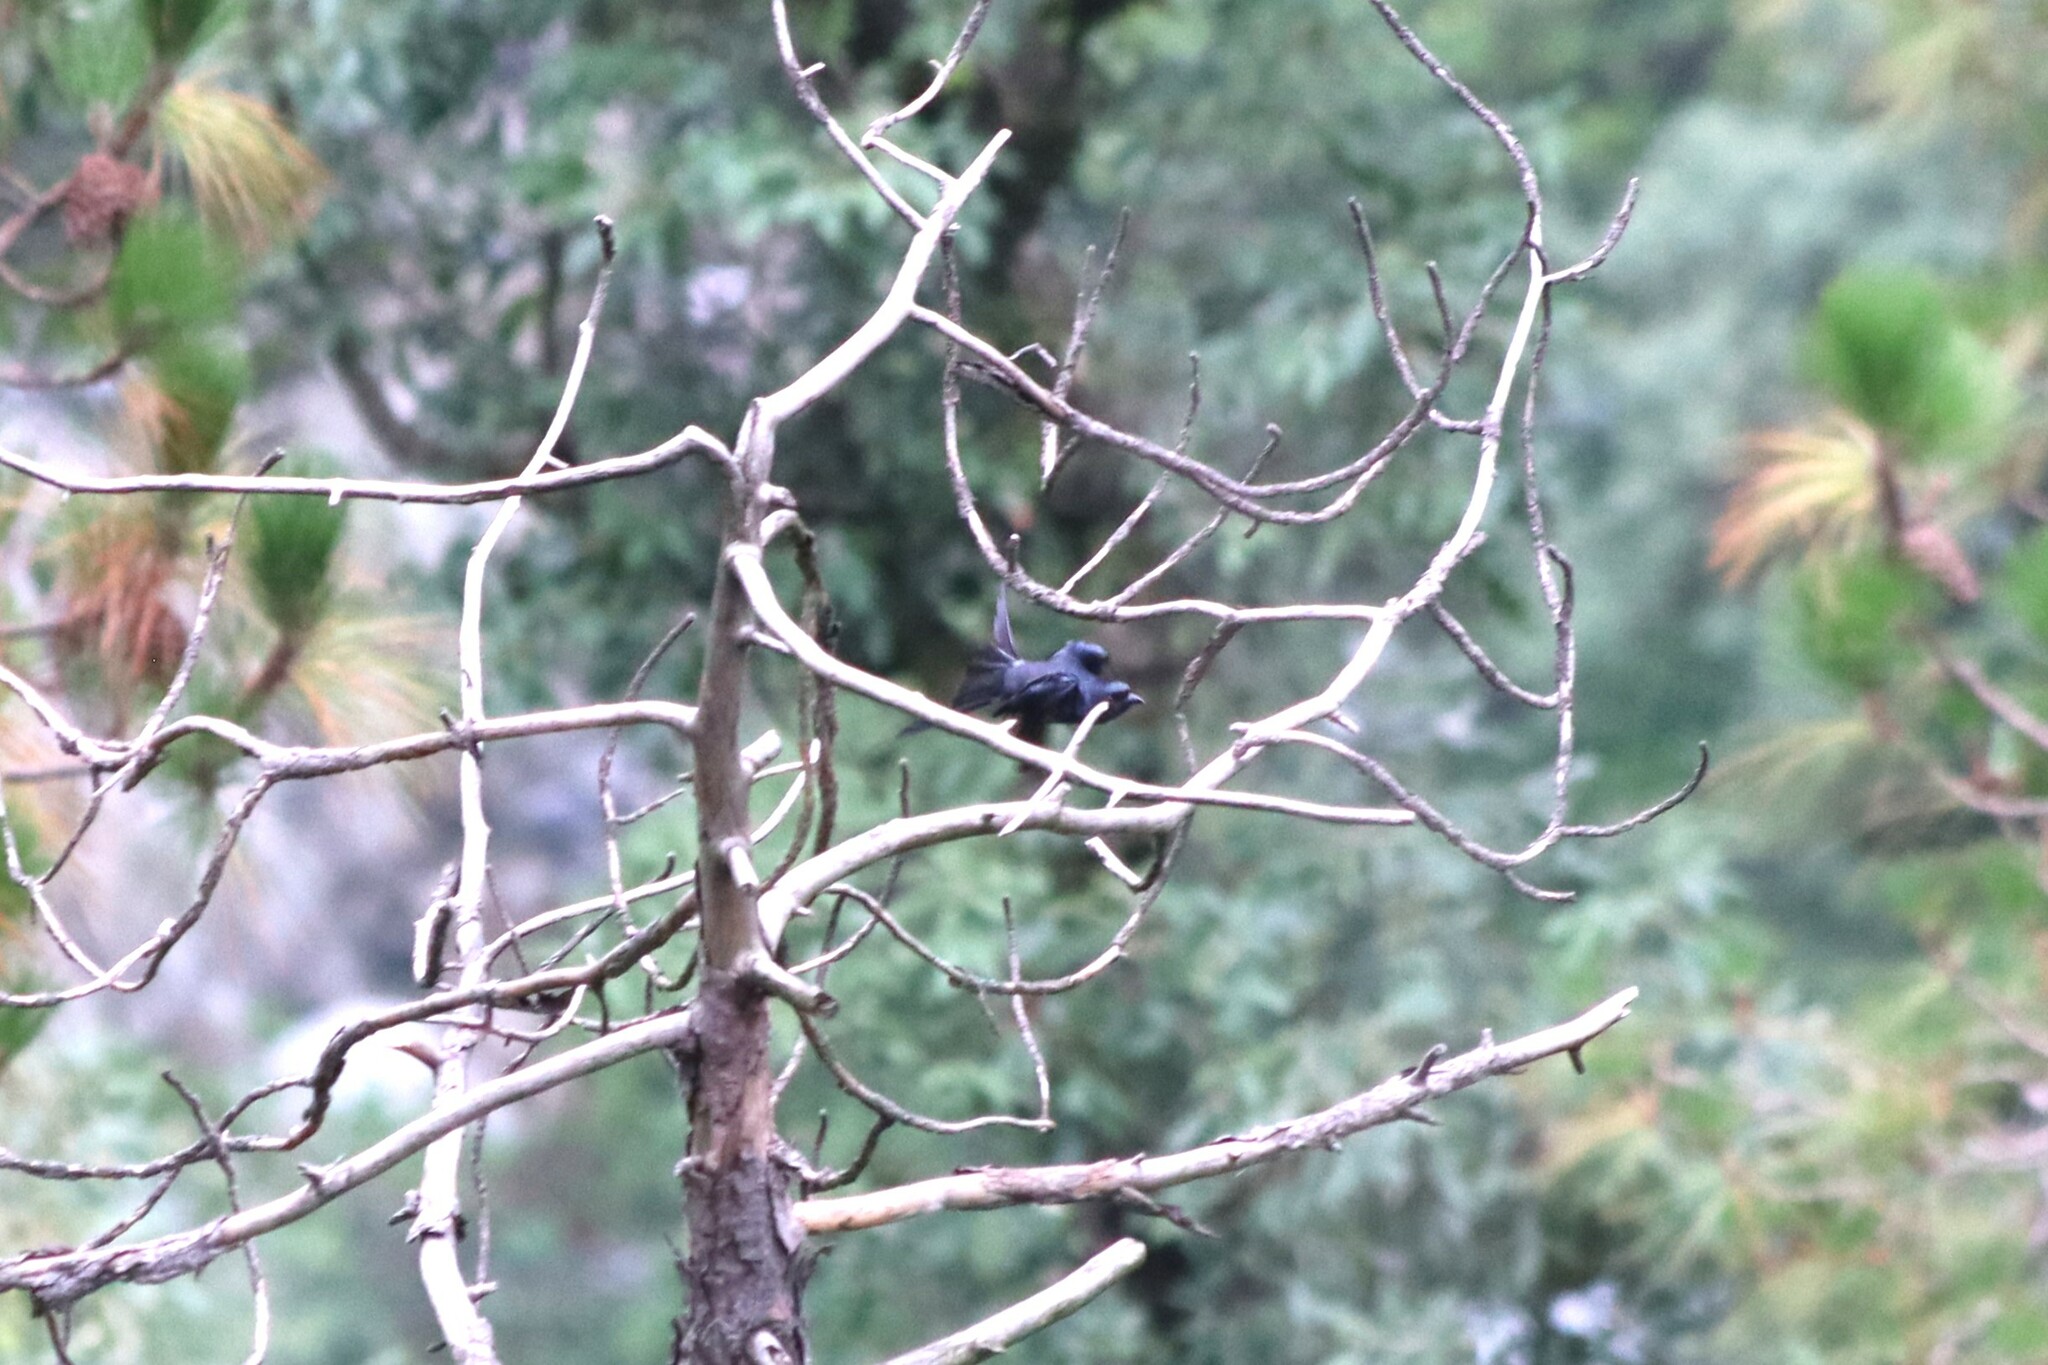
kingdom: Animalia
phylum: Chordata
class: Aves
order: Passeriformes
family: Dicruridae
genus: Dicrurus
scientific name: Dicrurus leucophaeus
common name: Ashy drongo
